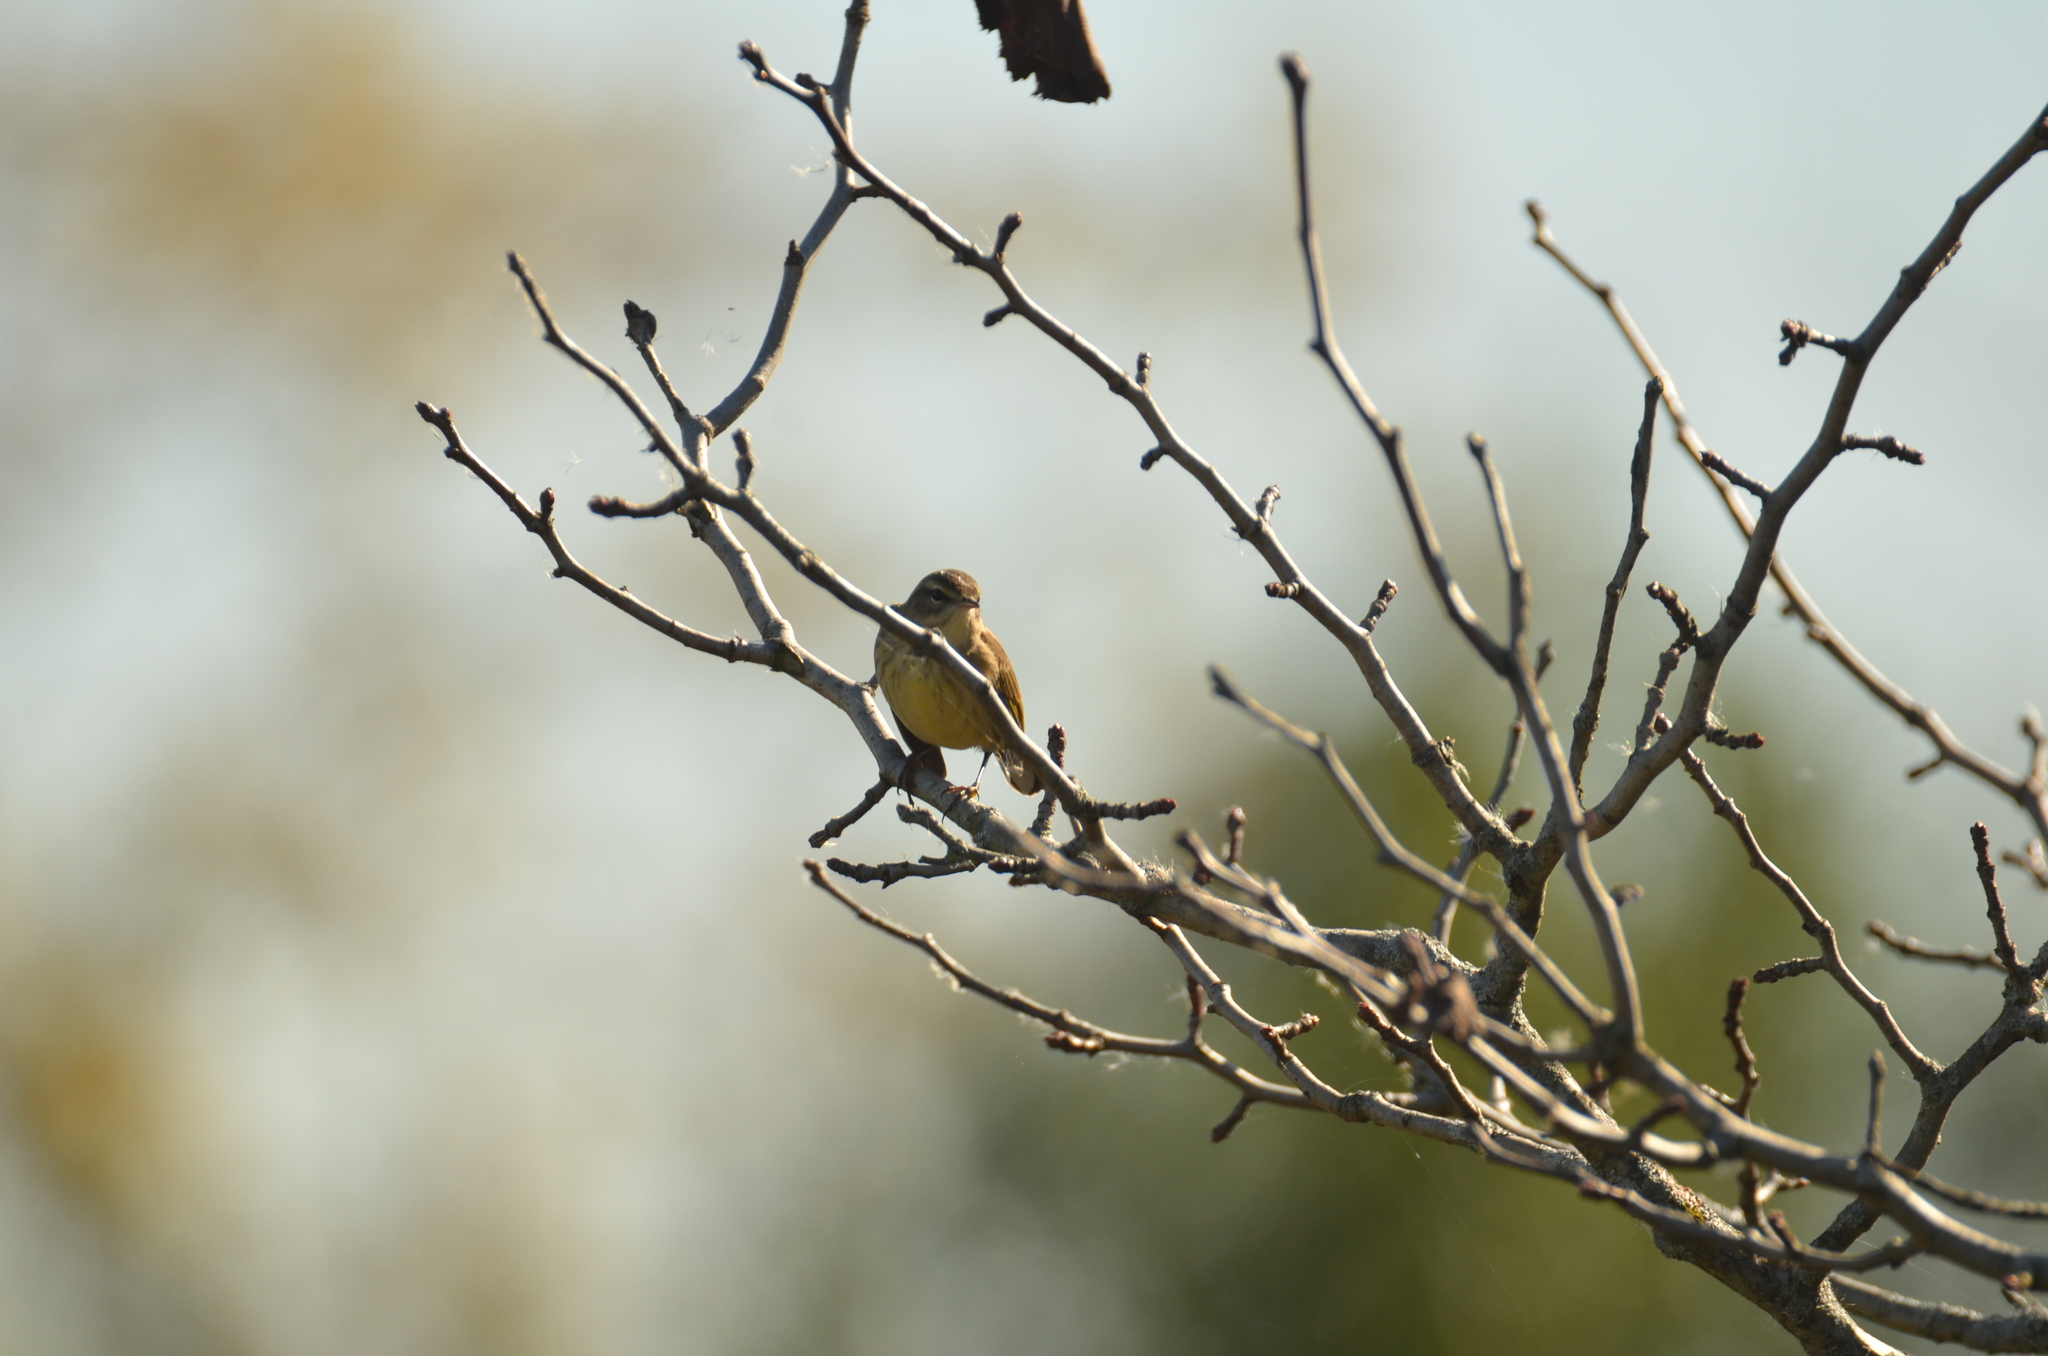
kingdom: Animalia
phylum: Chordata
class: Aves
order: Passeriformes
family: Parulidae
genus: Setophaga
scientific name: Setophaga palmarum
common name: Palm warbler
